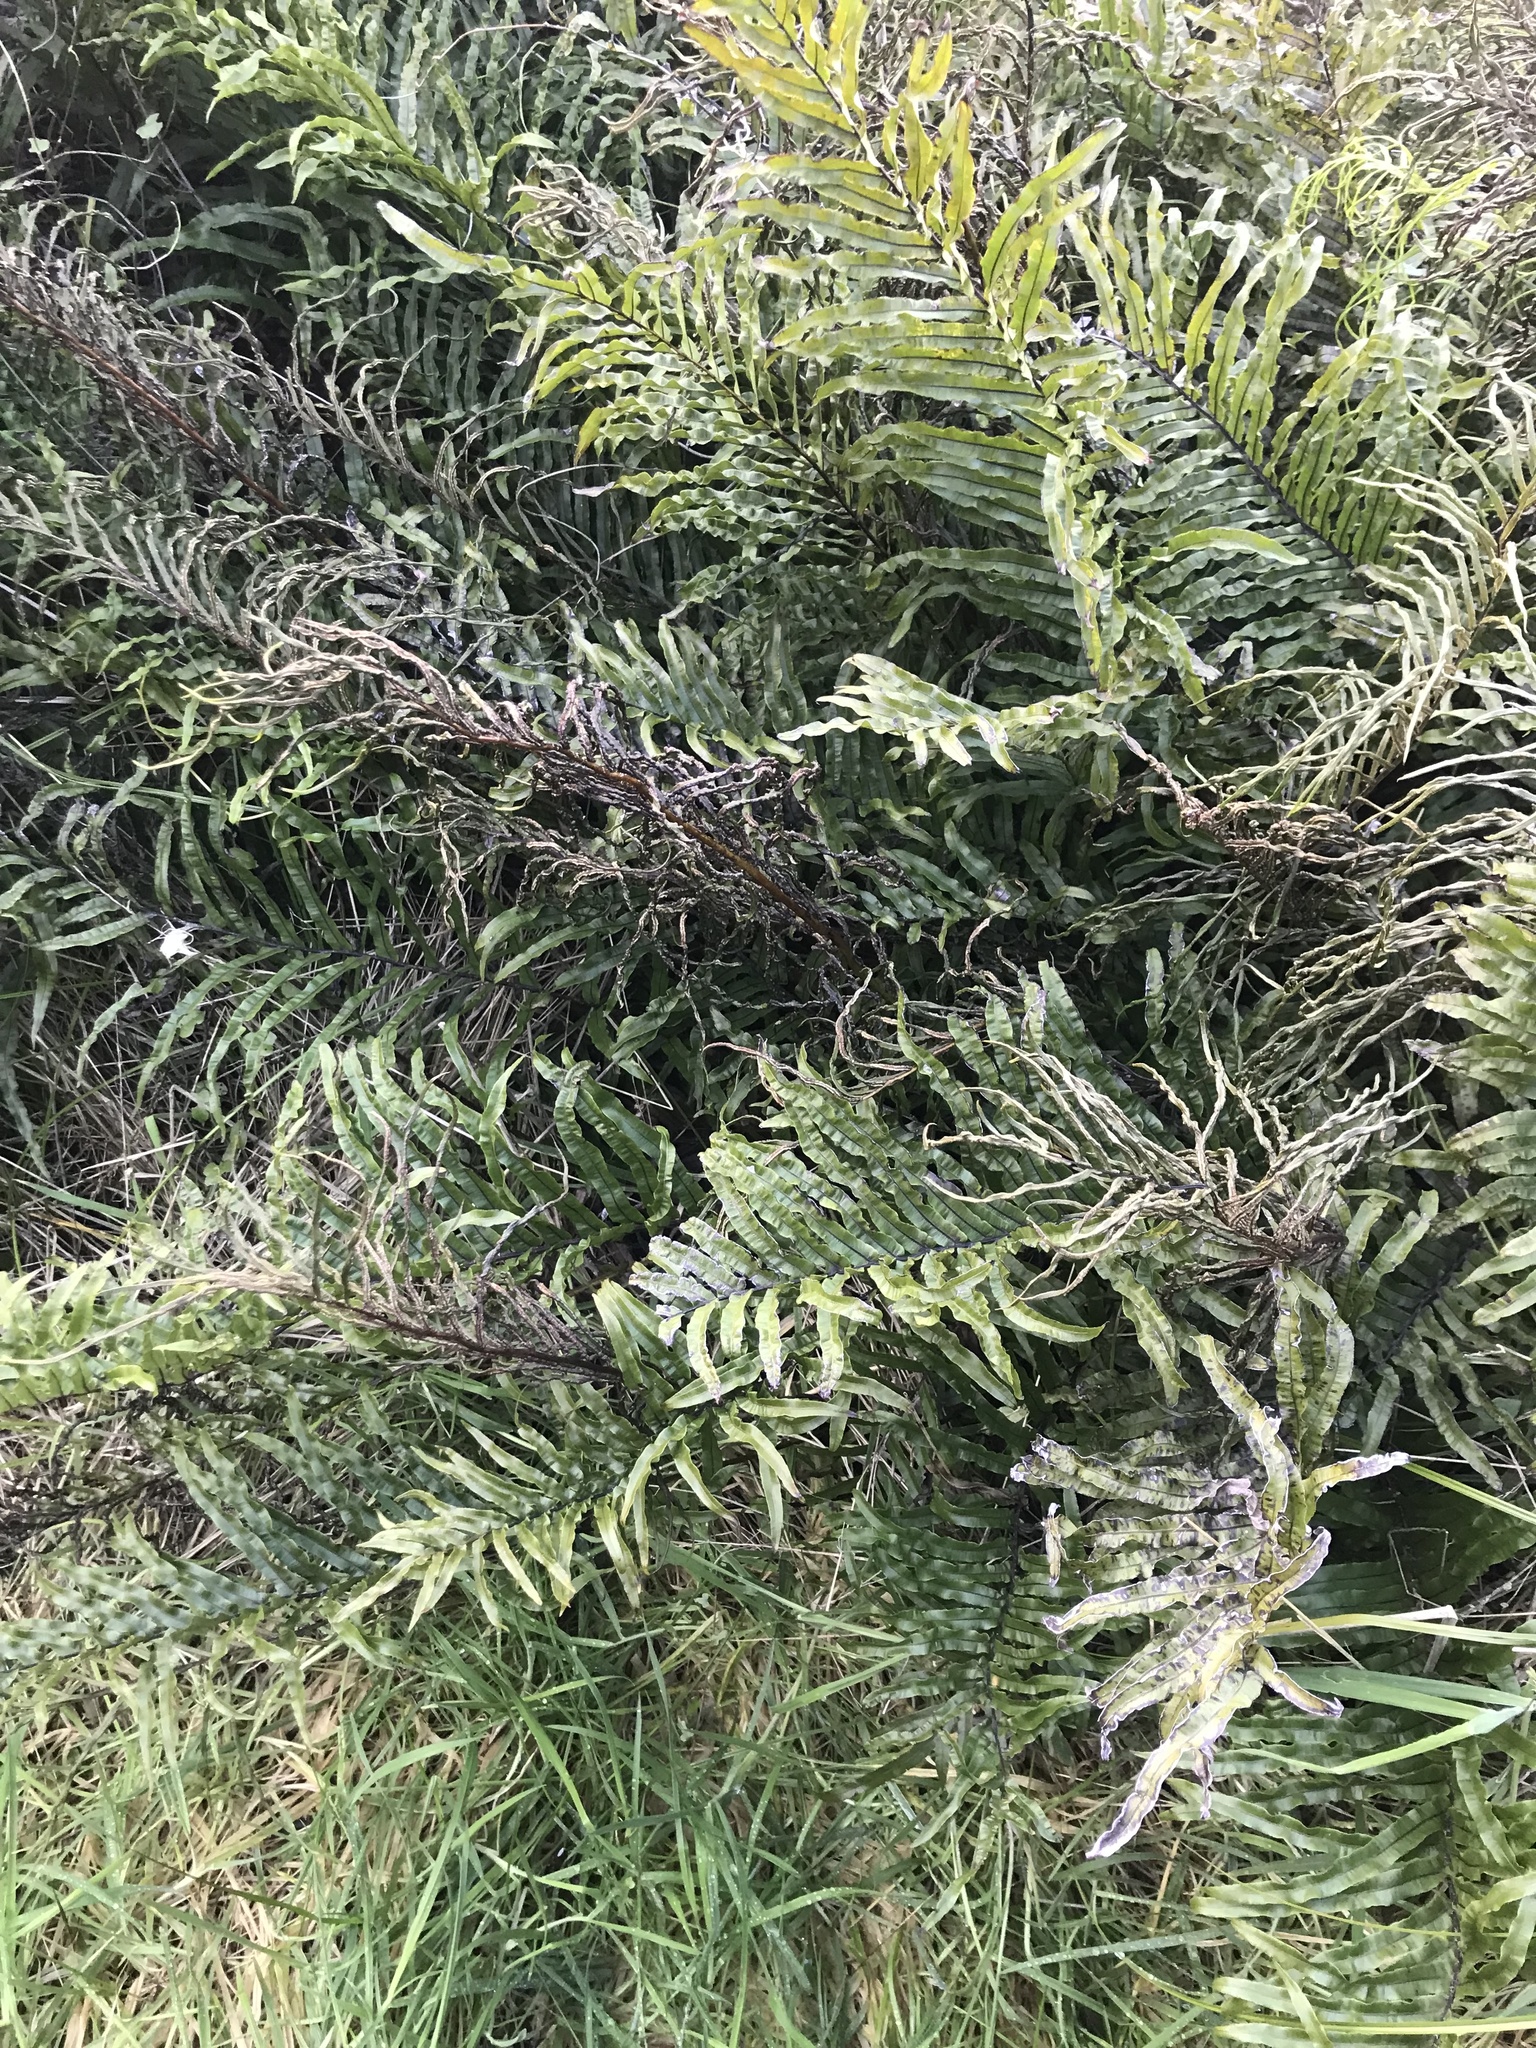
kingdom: Plantae
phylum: Tracheophyta
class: Polypodiopsida
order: Polypodiales
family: Blechnaceae
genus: Parablechnum
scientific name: Parablechnum novae-zelandiae
